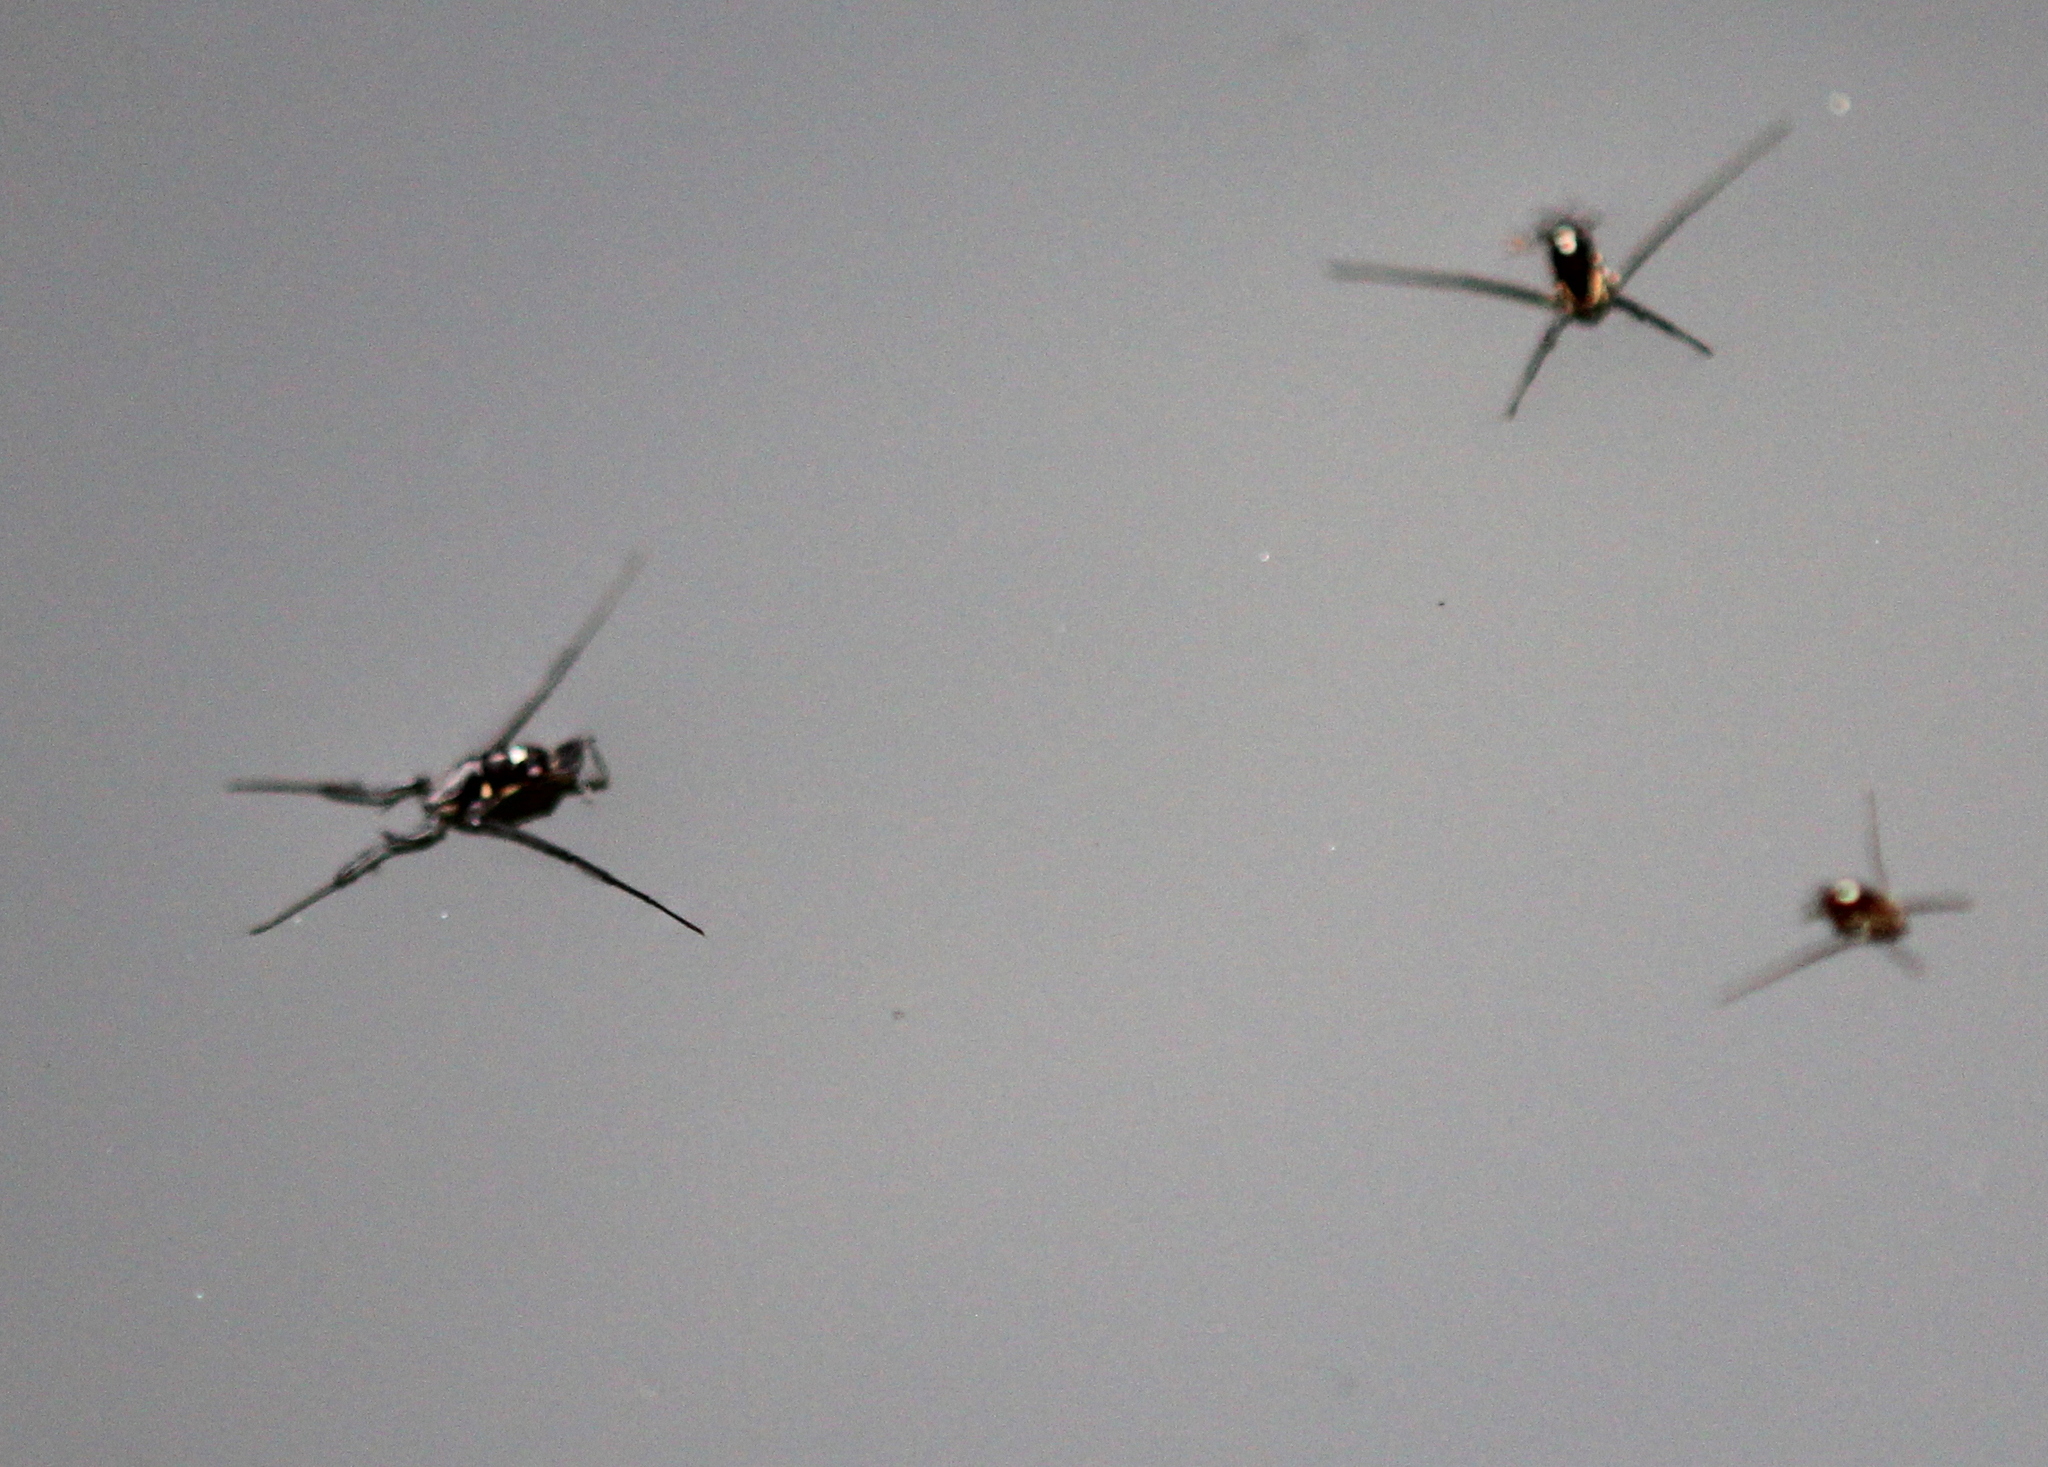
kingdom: Animalia
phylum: Arthropoda
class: Insecta
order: Hemiptera
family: Gerridae
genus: Rheumatobates
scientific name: Rheumatobates
